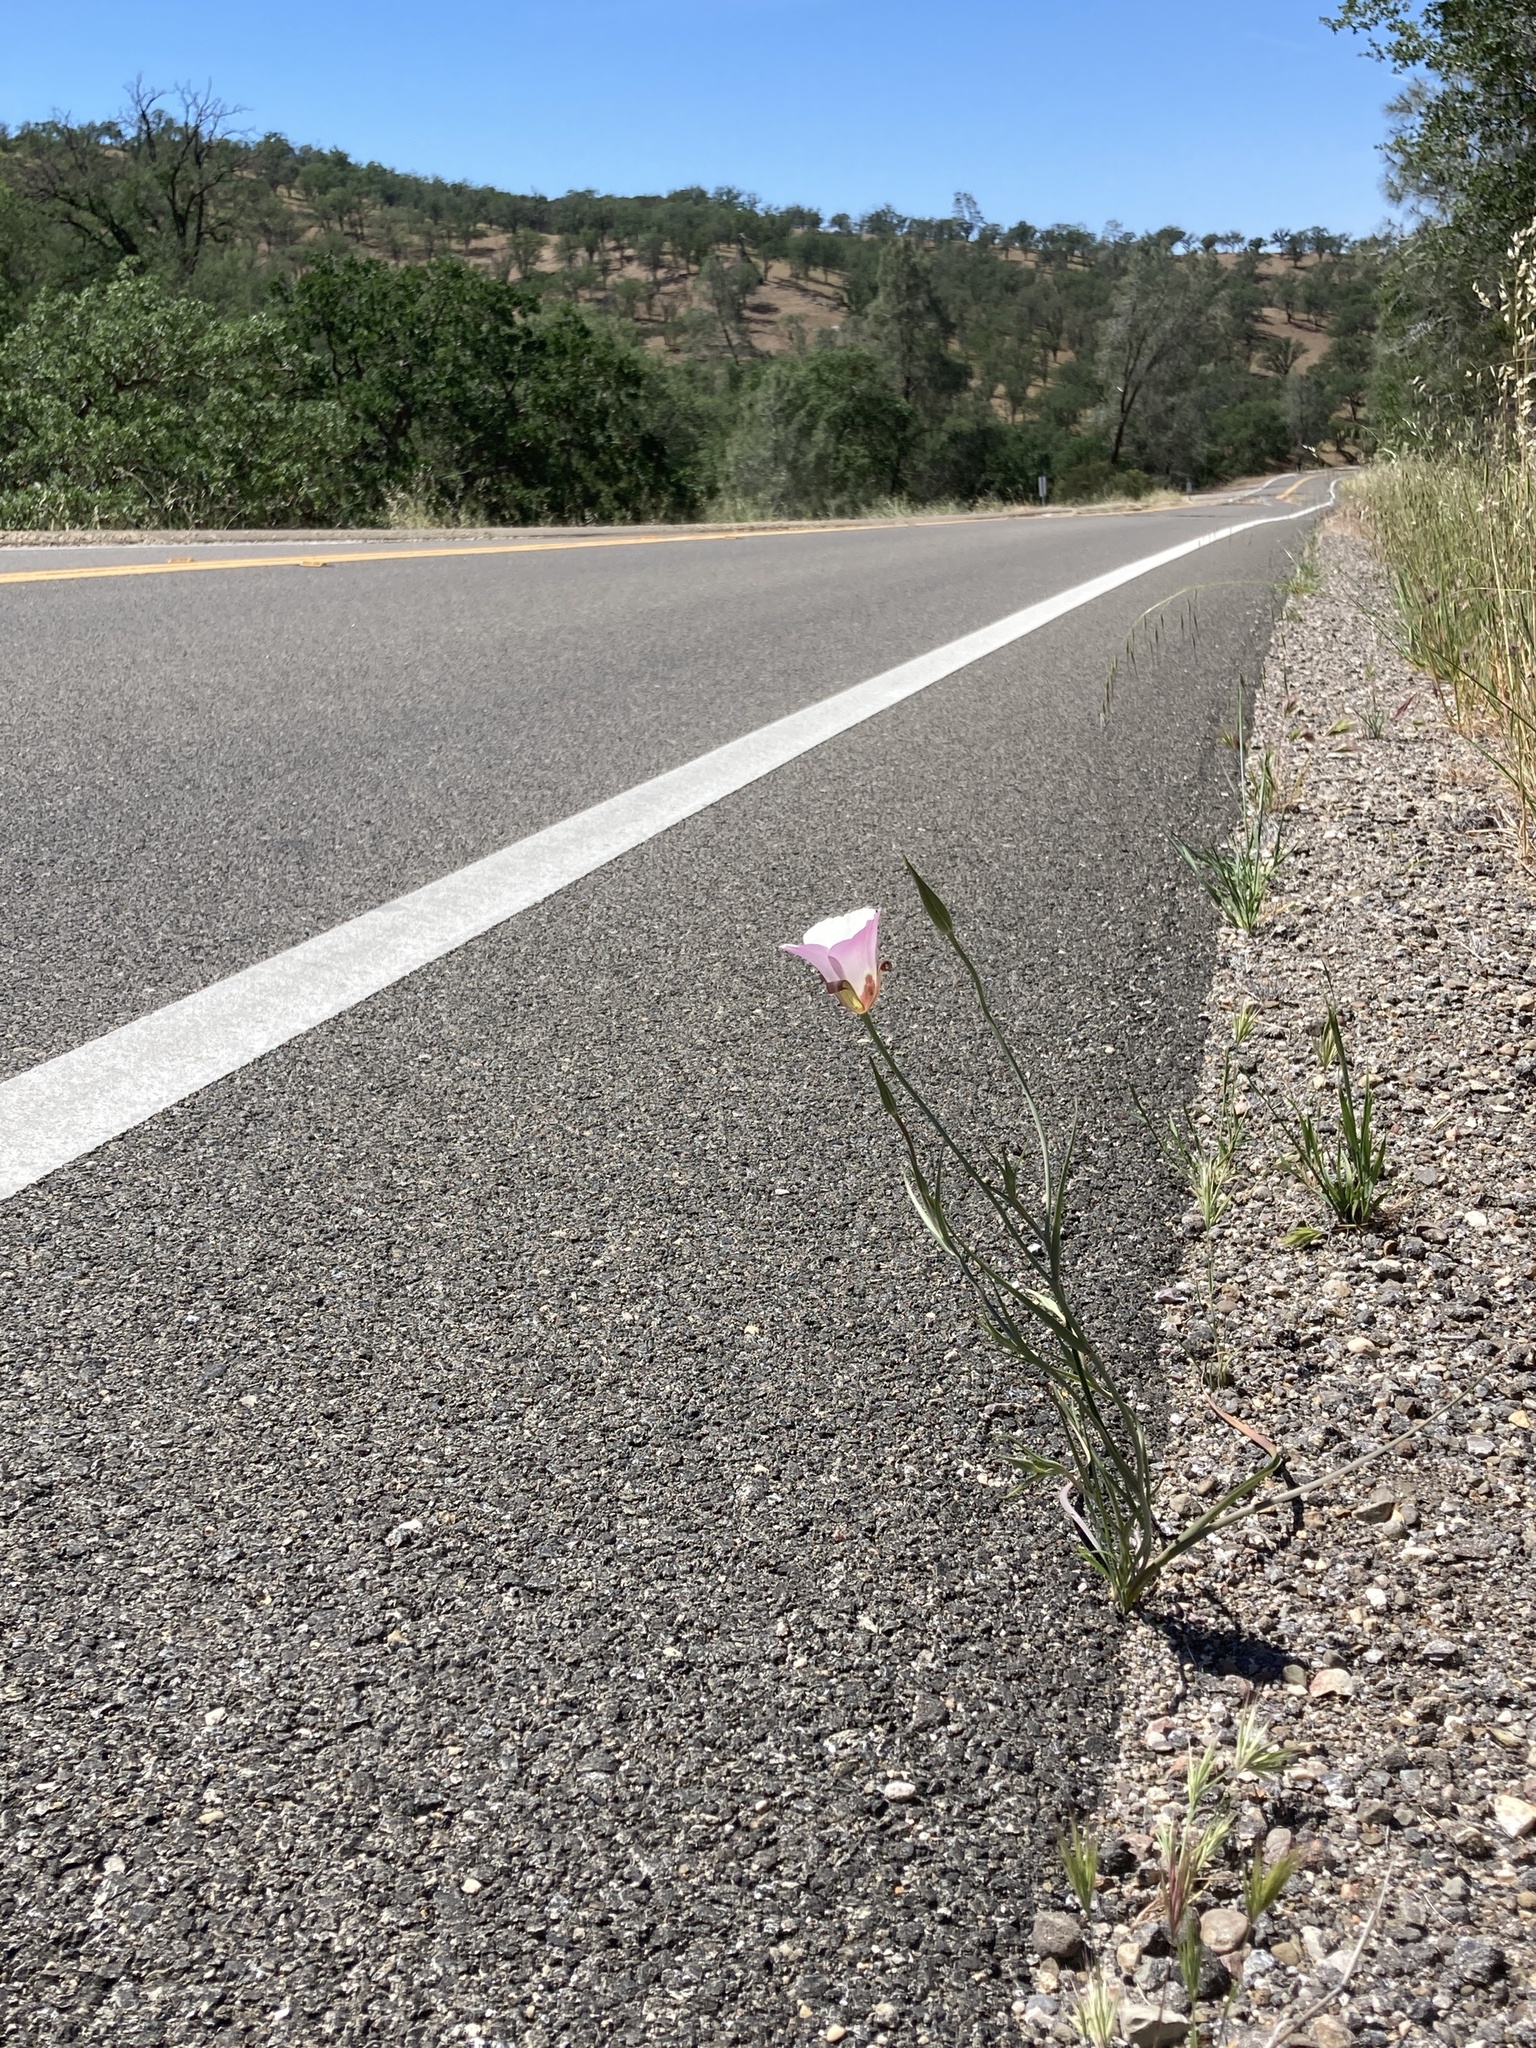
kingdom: Plantae
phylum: Tracheophyta
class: Liliopsida
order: Liliales
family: Liliaceae
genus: Calochortus
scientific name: Calochortus simulans
